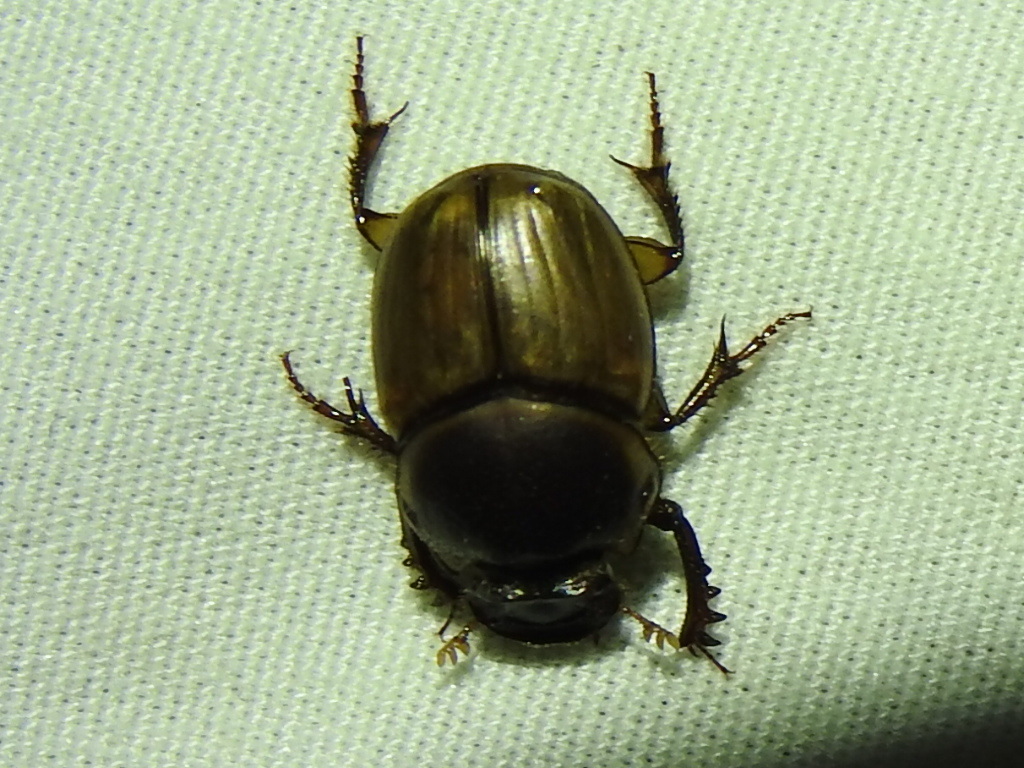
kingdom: Animalia
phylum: Arthropoda
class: Insecta
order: Coleoptera
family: Scarabaeidae
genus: Digitonthophagus
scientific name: Digitonthophagus gazella
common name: Brown dung beetle
